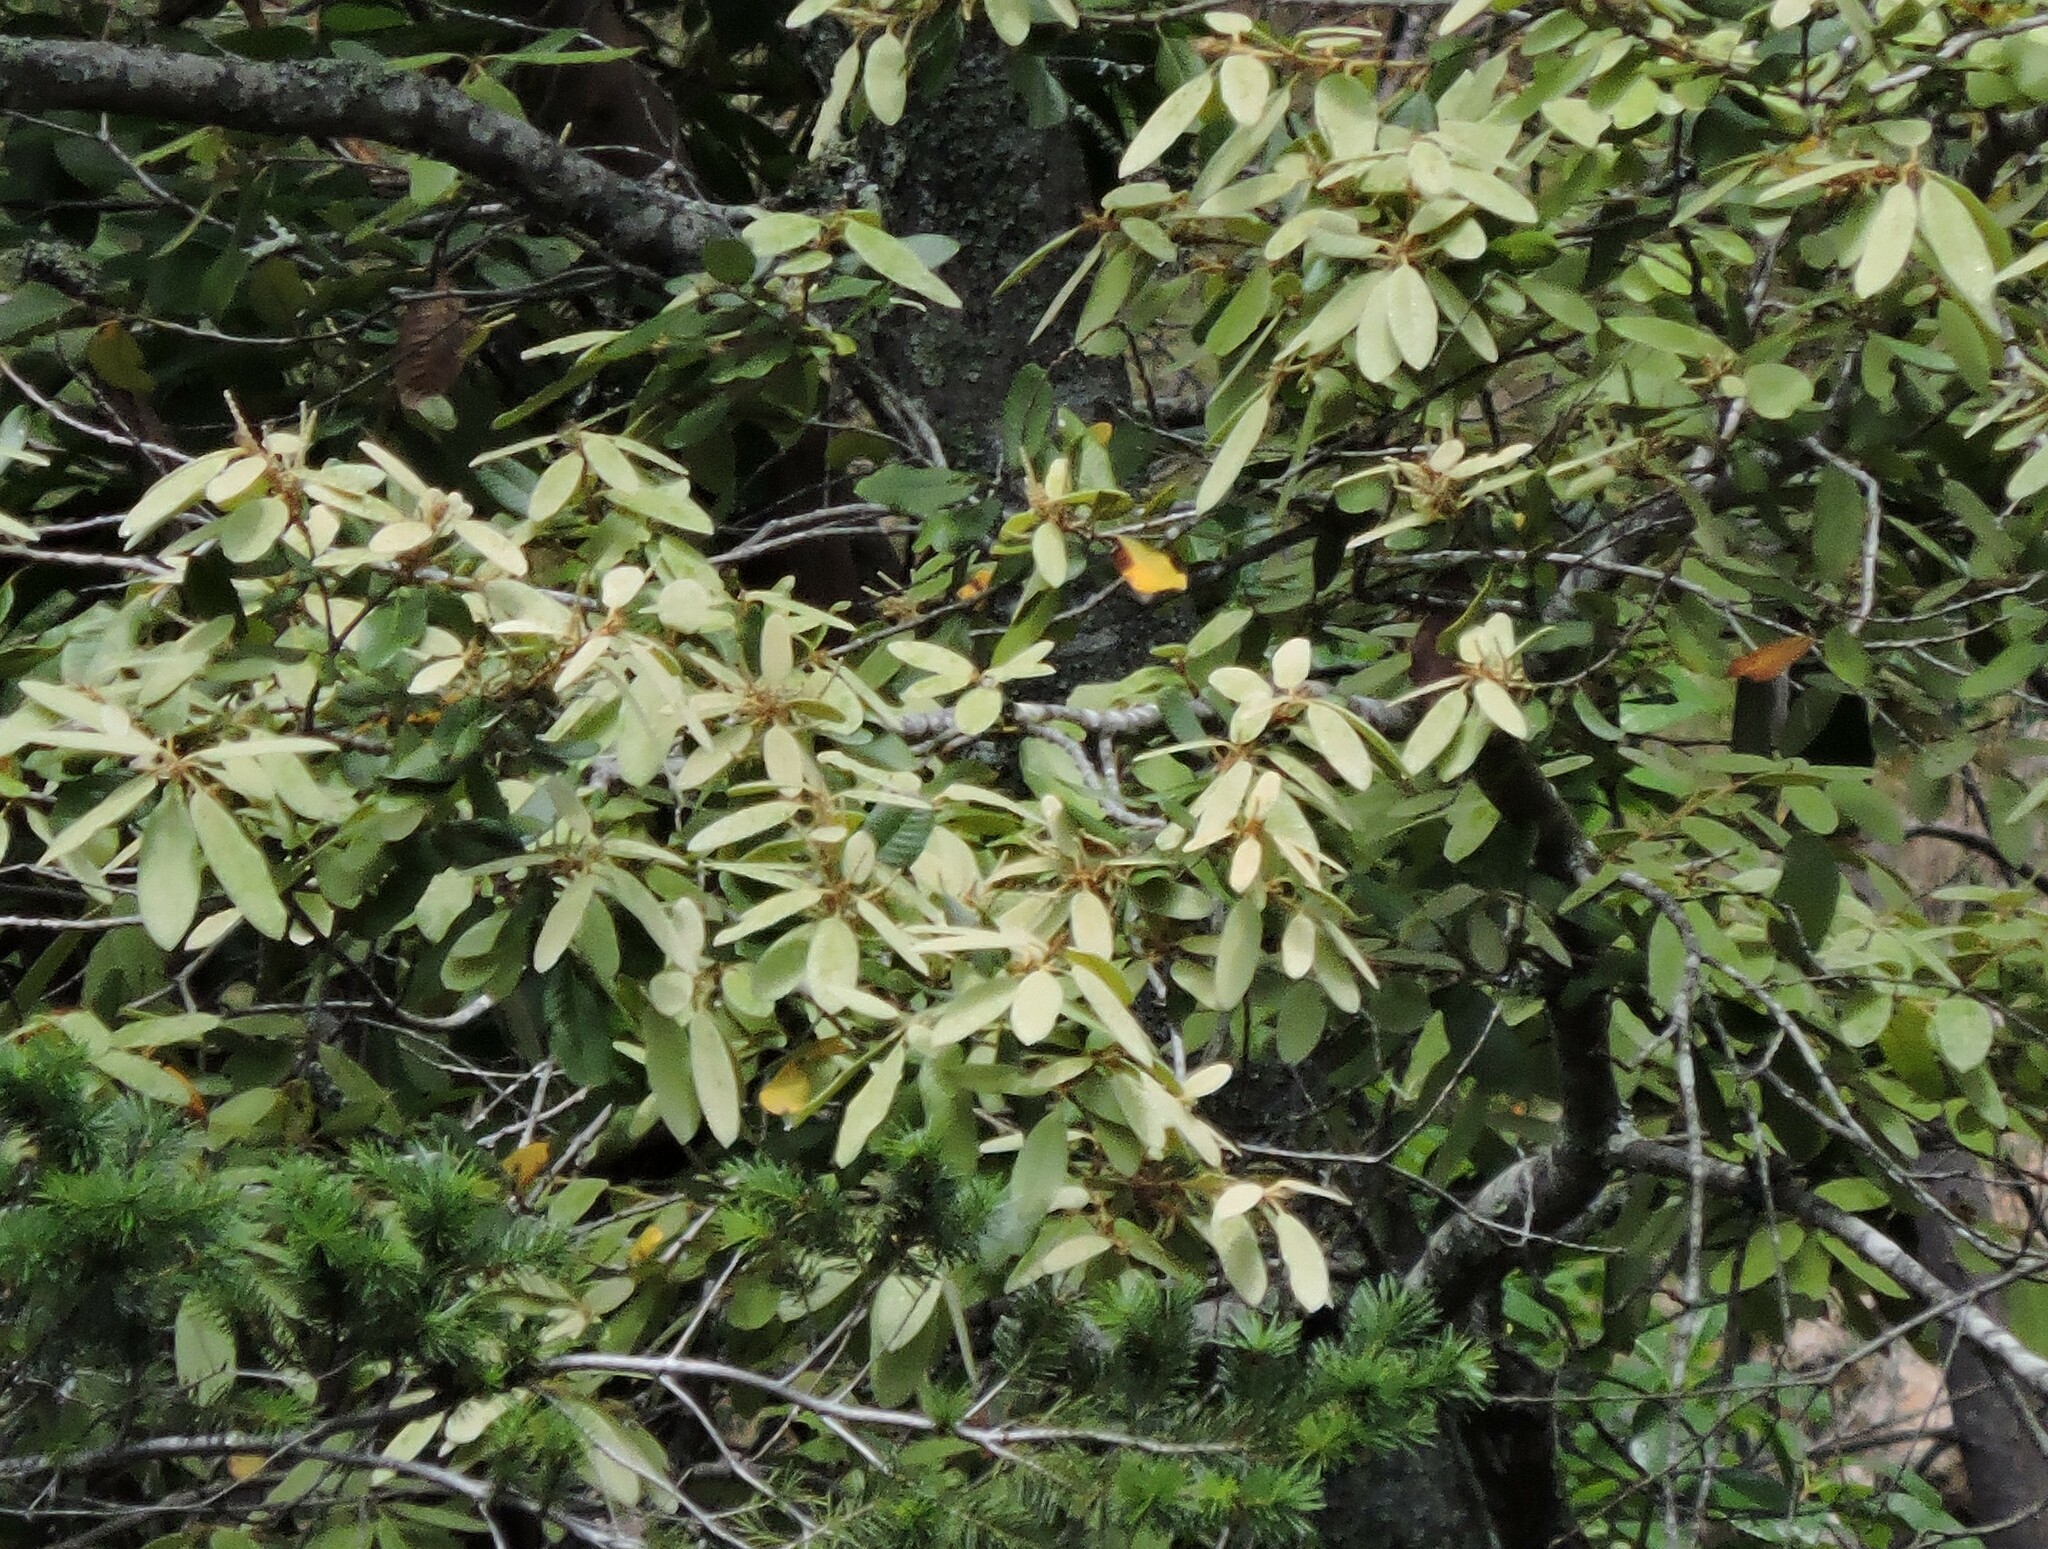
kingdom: Plantae
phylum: Tracheophyta
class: Magnoliopsida
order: Fagales
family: Fagaceae
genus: Notholithocarpus
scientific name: Notholithocarpus densiflorus
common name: Tan bark oak
